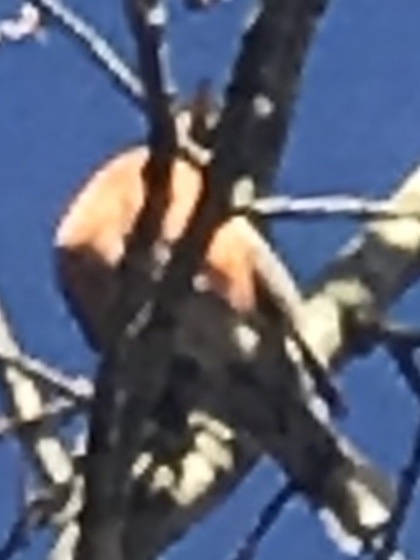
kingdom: Animalia
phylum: Chordata
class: Aves
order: Passeriformes
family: Turdidae
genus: Turdus
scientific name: Turdus migratorius
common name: American robin
